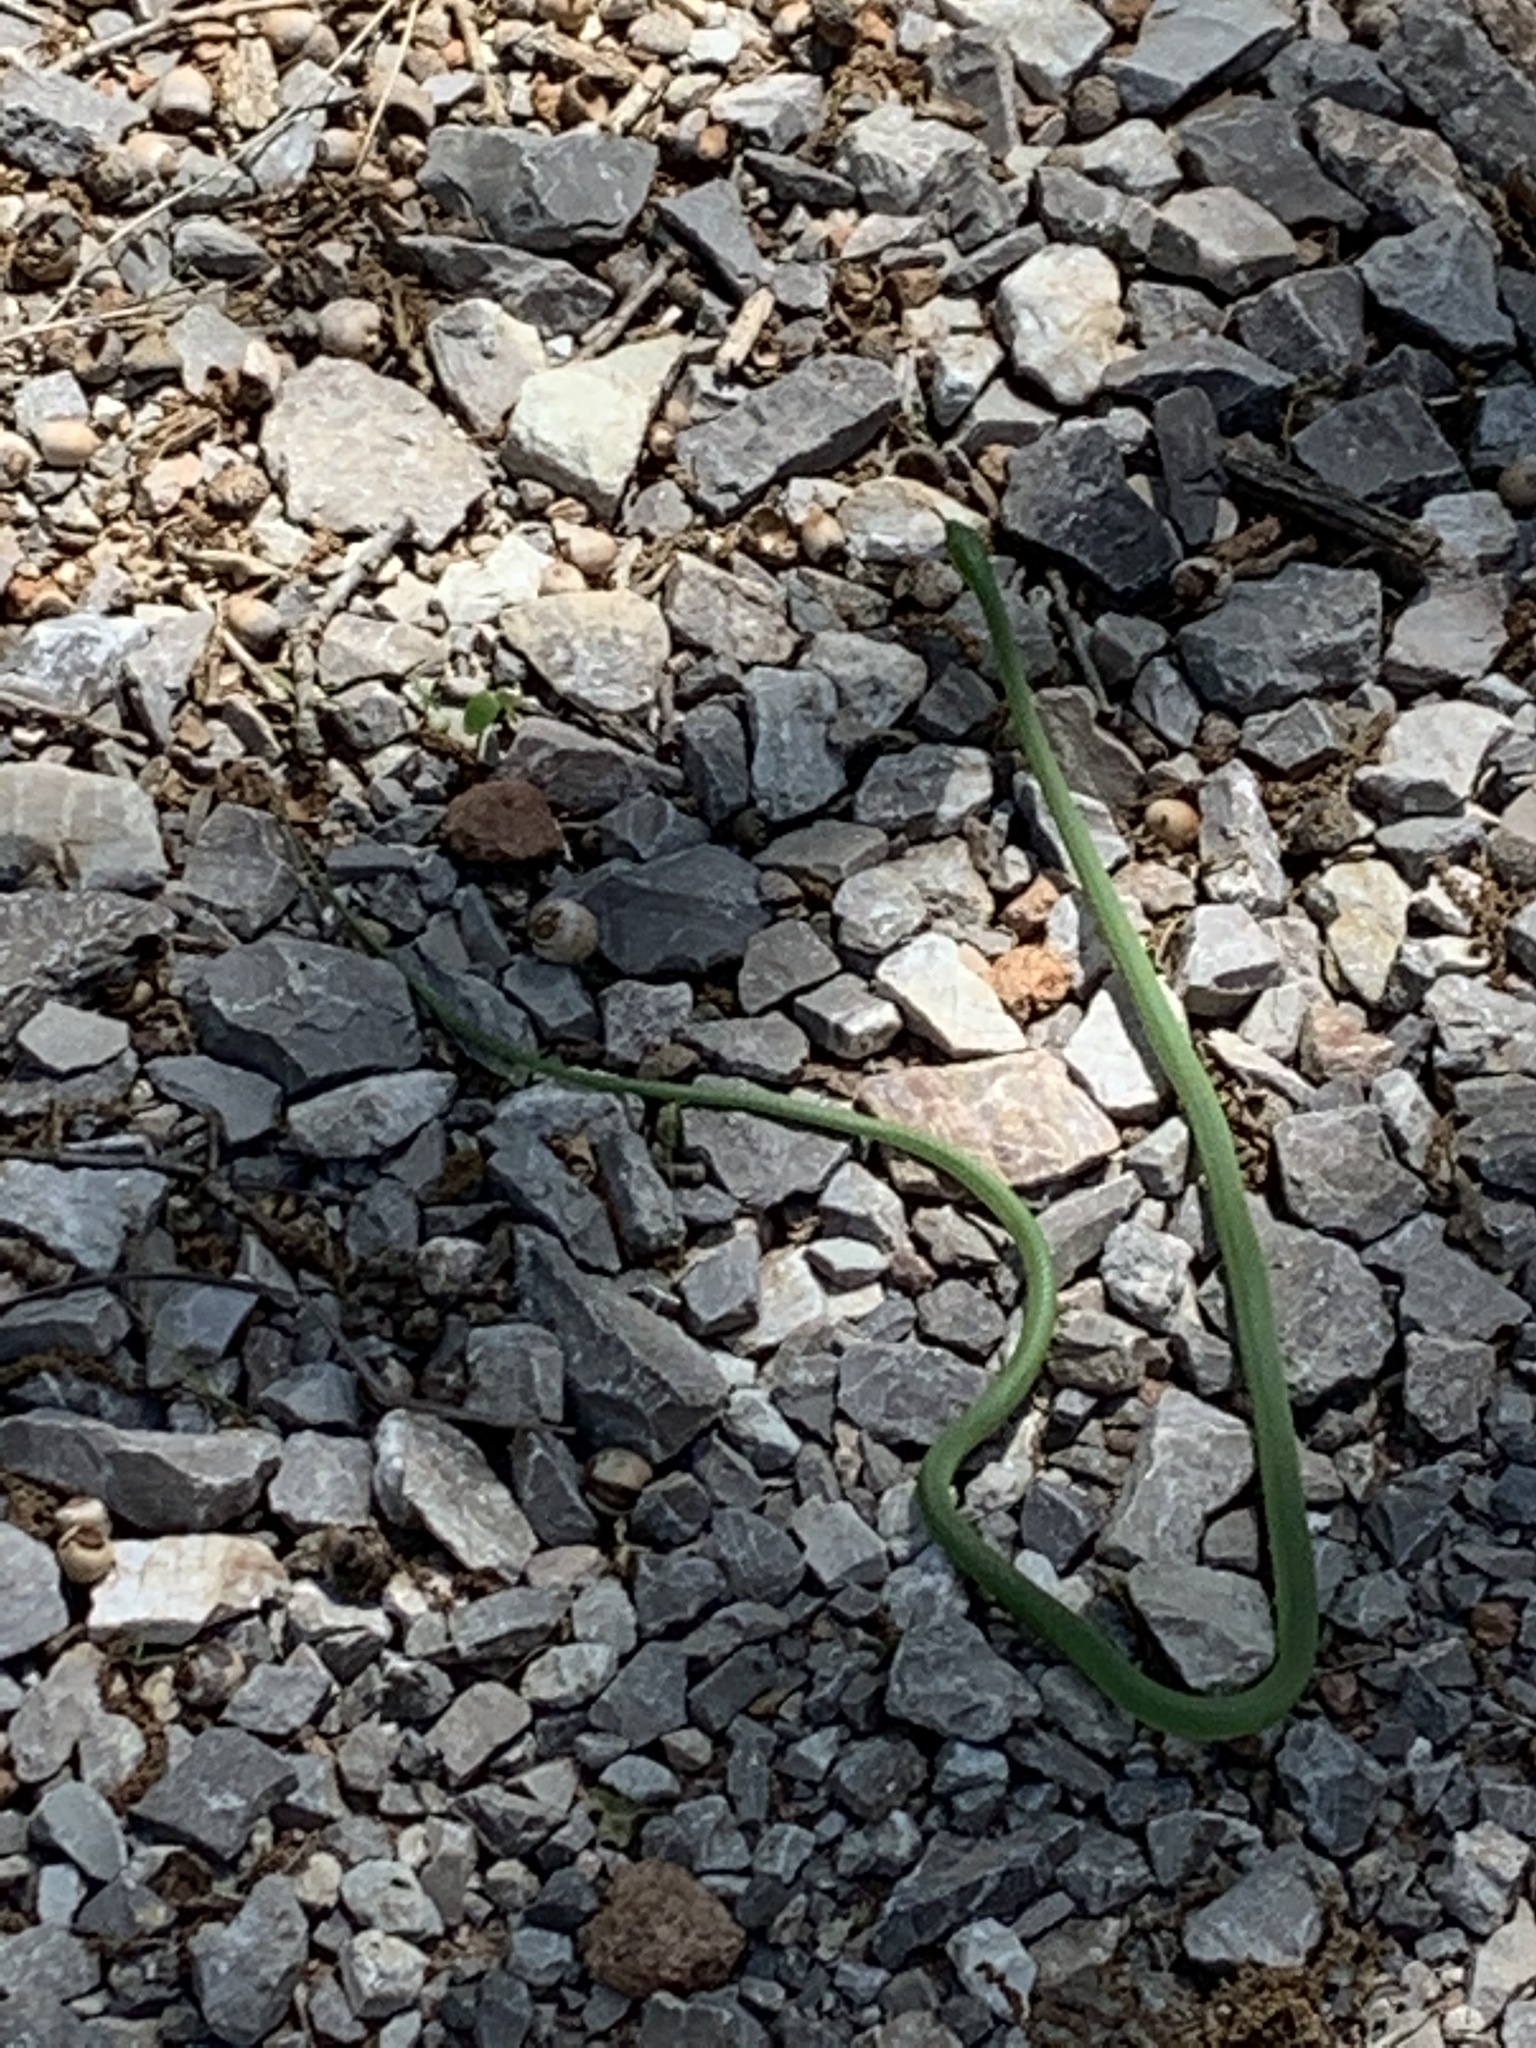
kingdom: Animalia
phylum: Chordata
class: Squamata
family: Colubridae
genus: Opheodrys
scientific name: Opheodrys aestivus
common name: Rough greensnake
